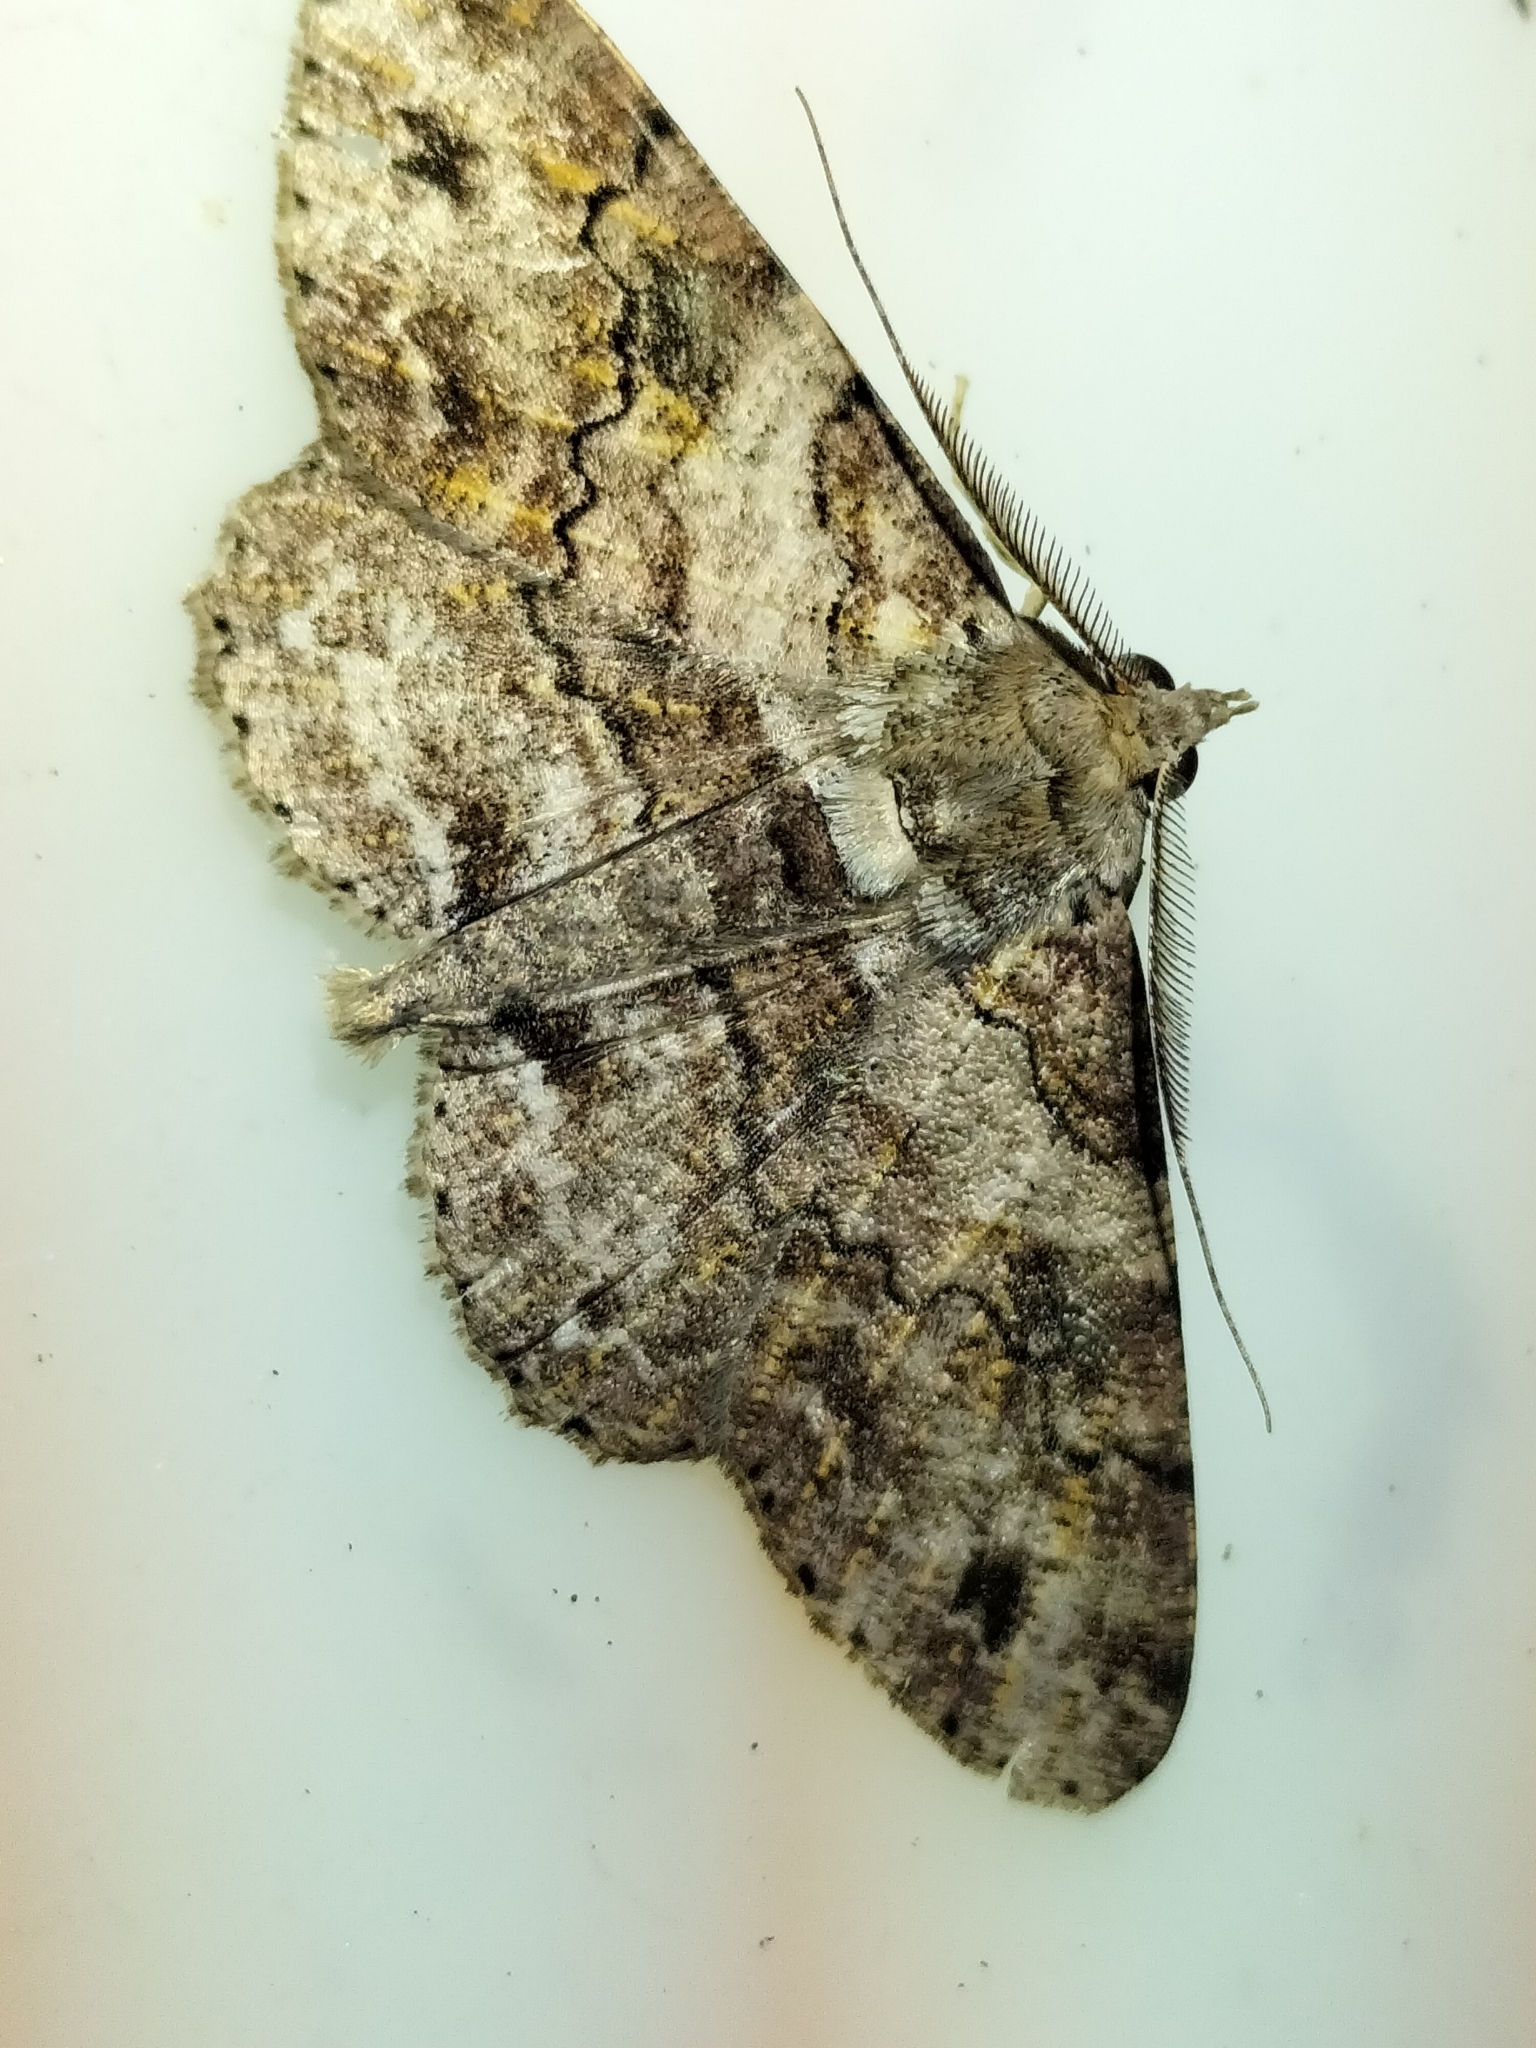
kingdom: Animalia
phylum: Arthropoda
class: Insecta
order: Lepidoptera
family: Geometridae
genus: Cleora
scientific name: Cleora repetita
